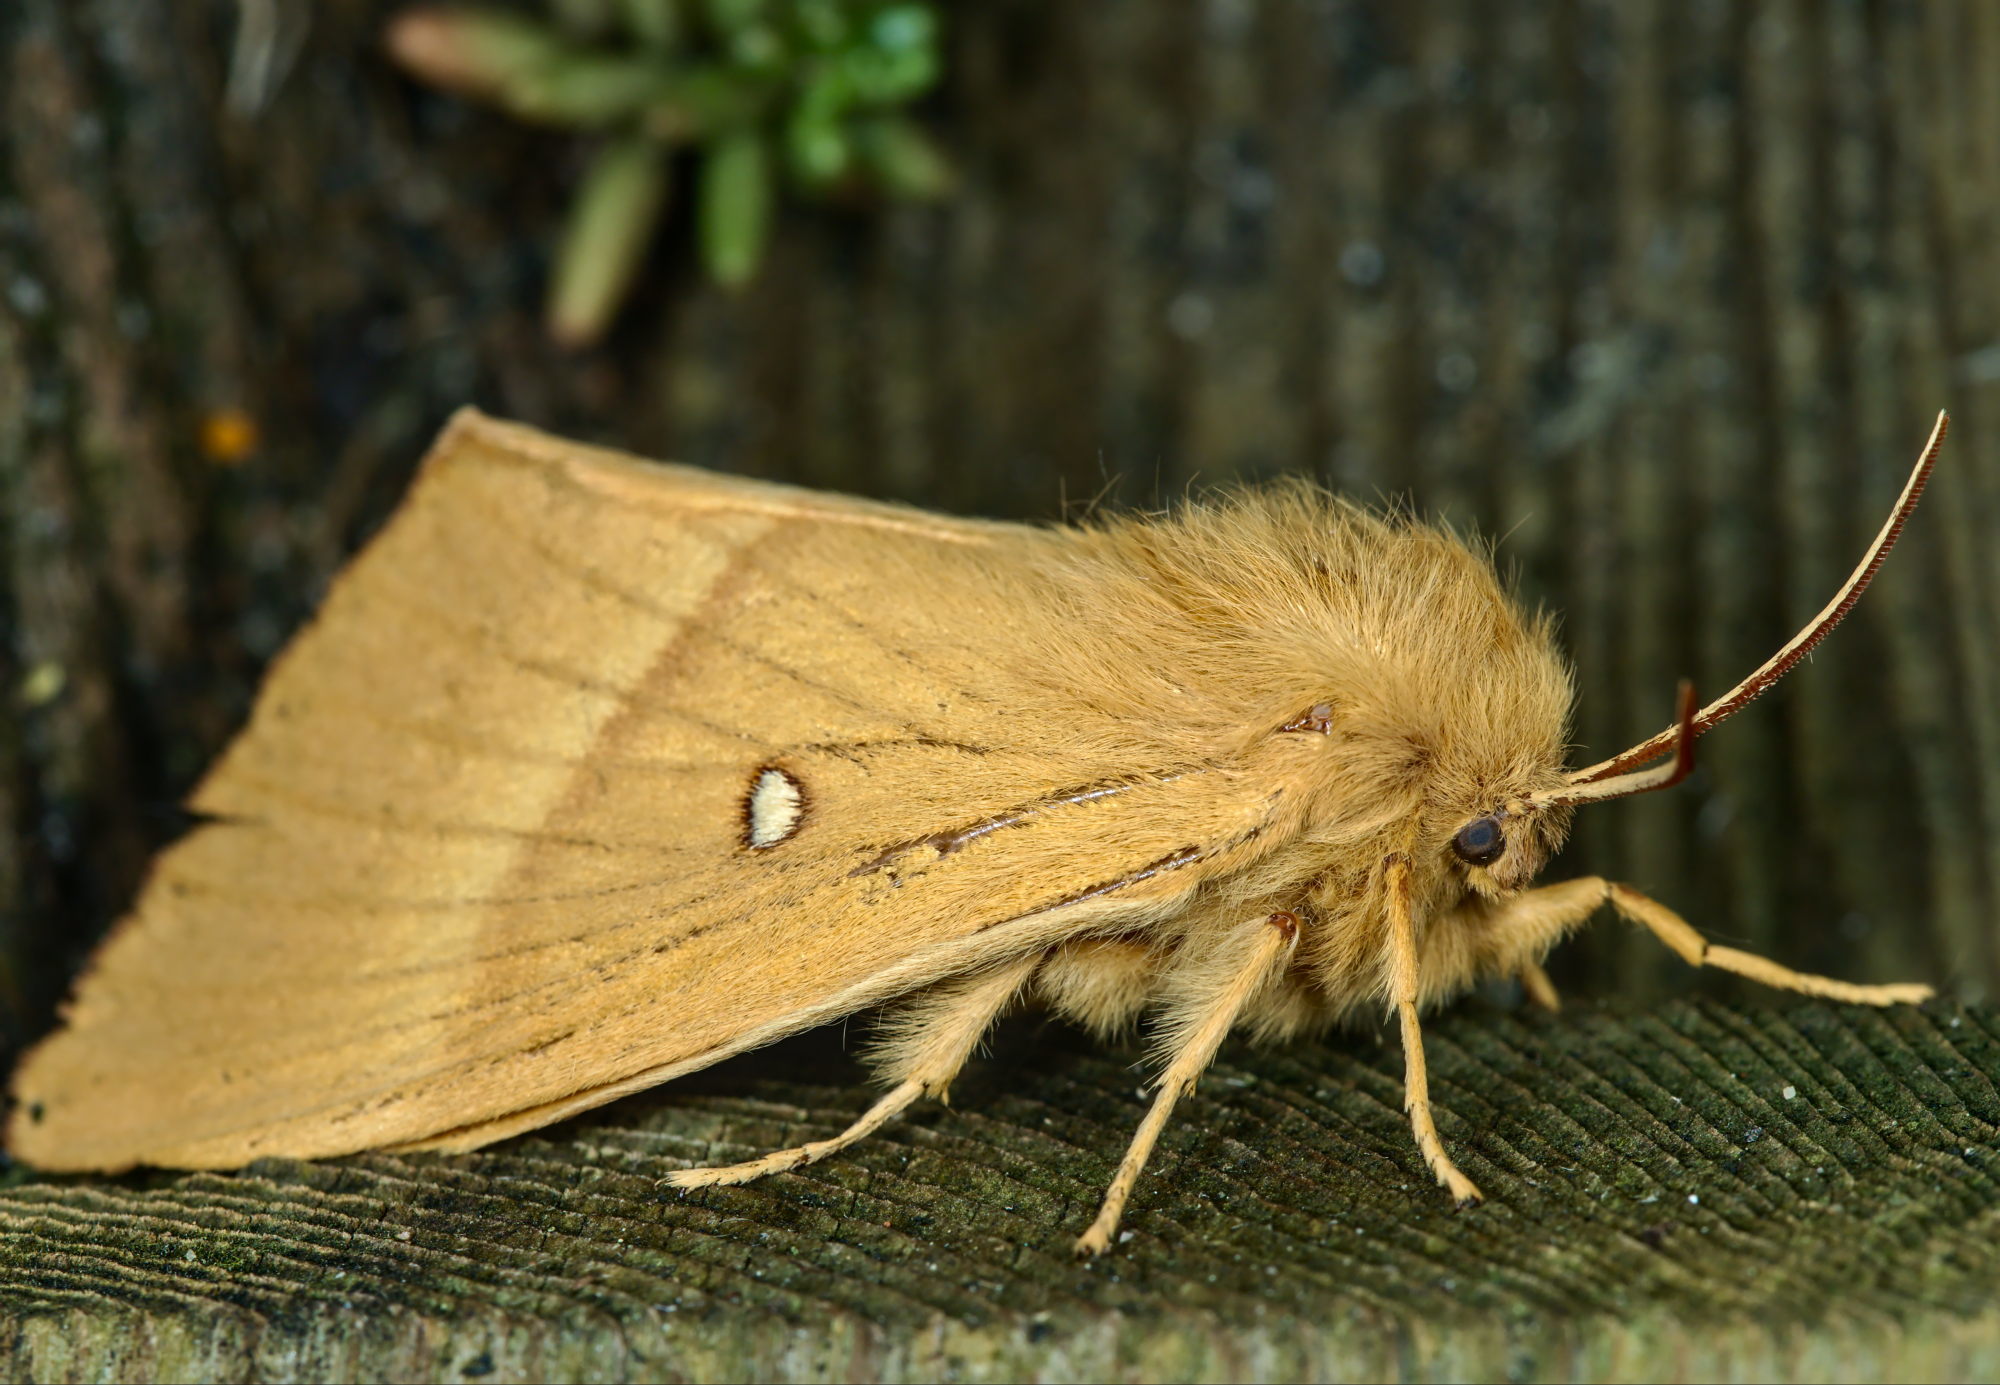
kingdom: Animalia
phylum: Arthropoda
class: Insecta
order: Lepidoptera
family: Lasiocampidae
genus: Lasiocampa
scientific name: Lasiocampa quercus
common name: Oak eggar
